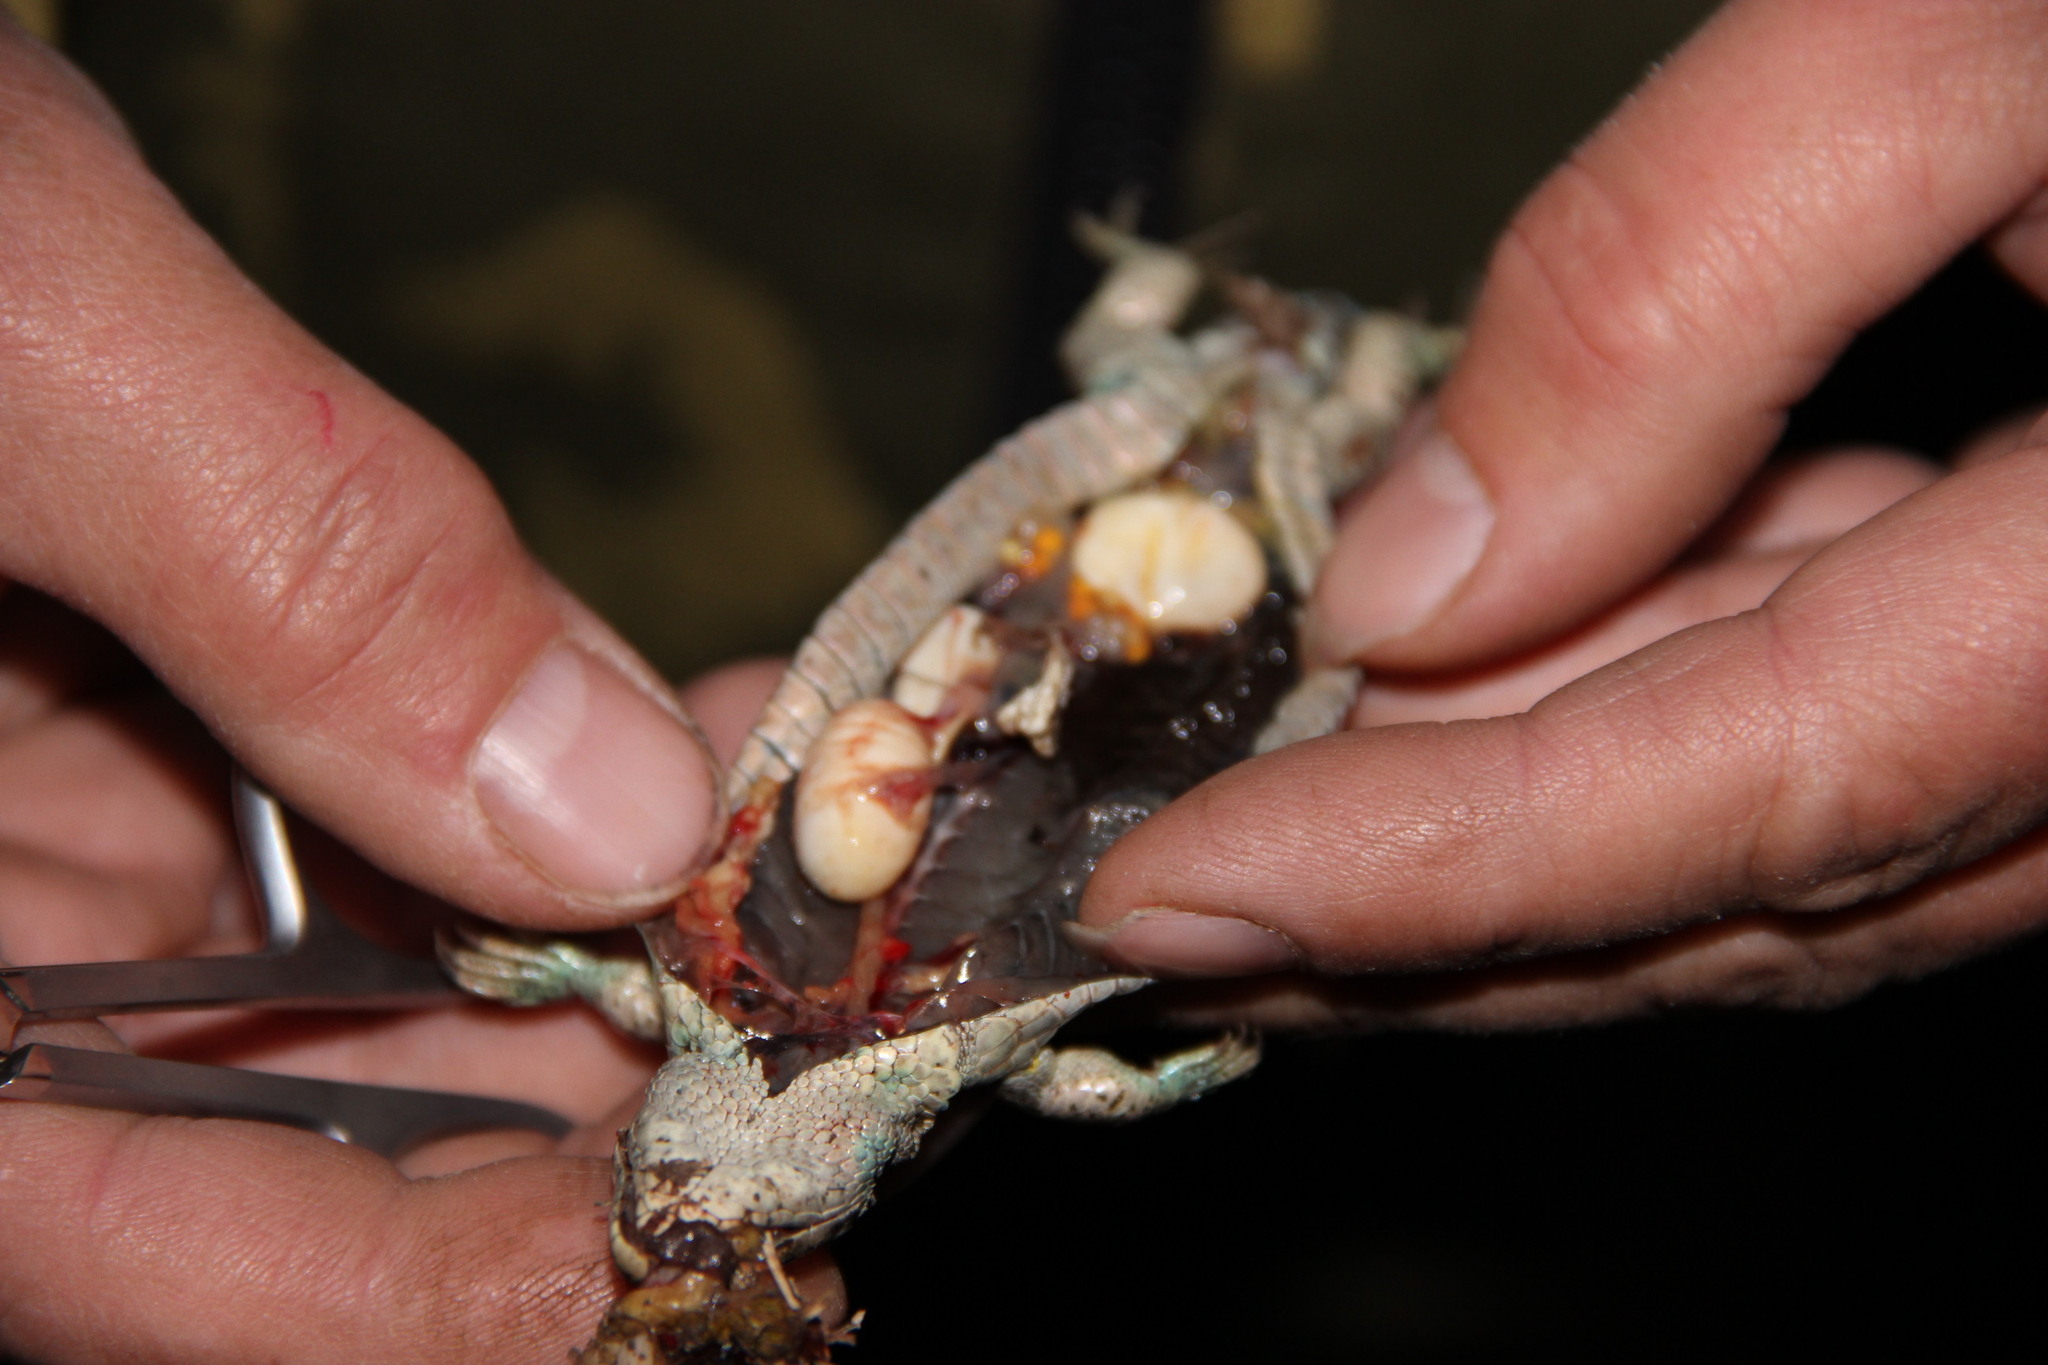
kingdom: Animalia
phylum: Chordata
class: Squamata
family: Lacertidae
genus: Lacerta
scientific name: Lacerta agilis
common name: Sand lizard
